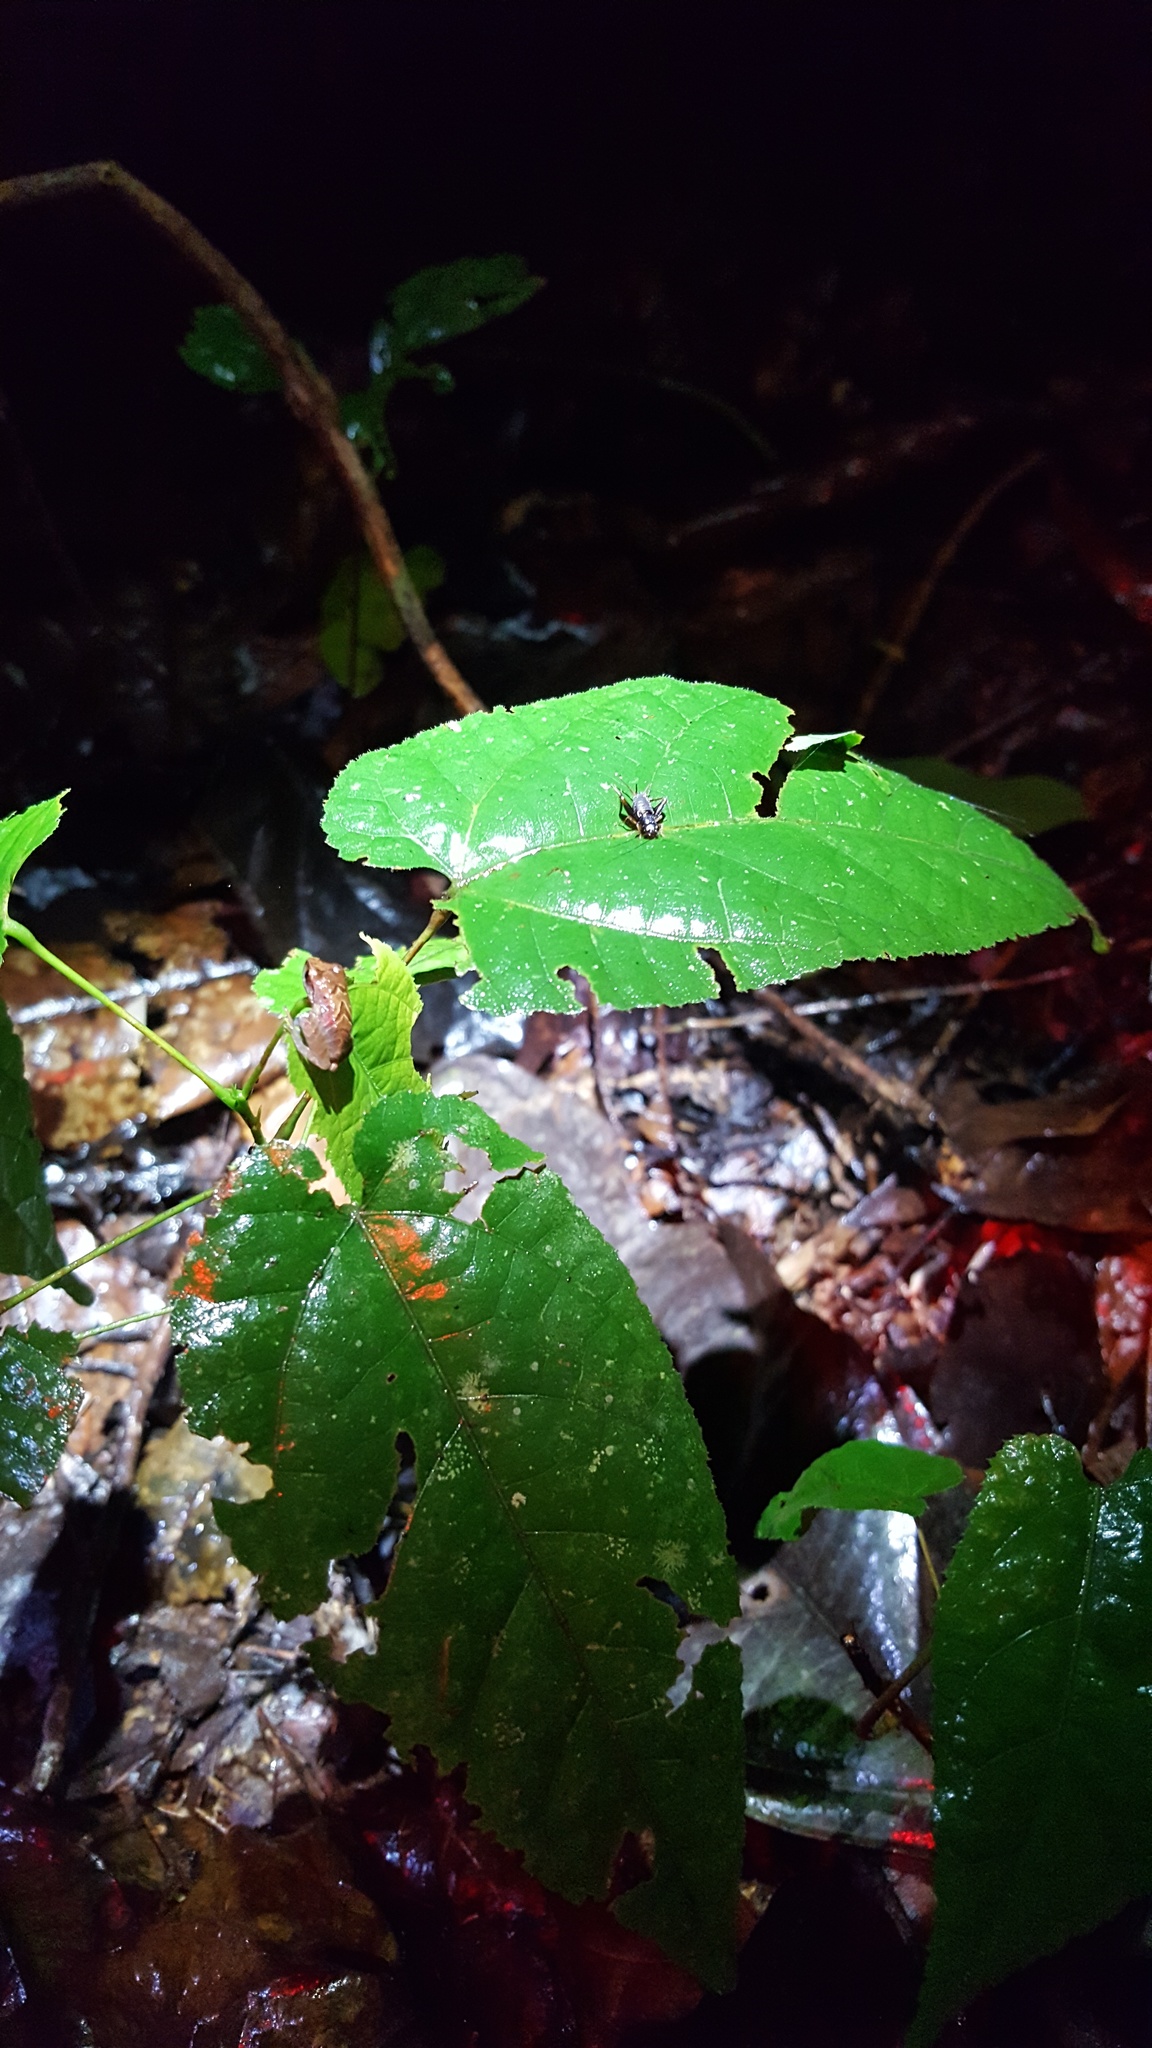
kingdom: Animalia
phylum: Chordata
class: Amphibia
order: Anura
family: Craugastoridae
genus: Pristimantis
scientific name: Pristimantis reichlei
